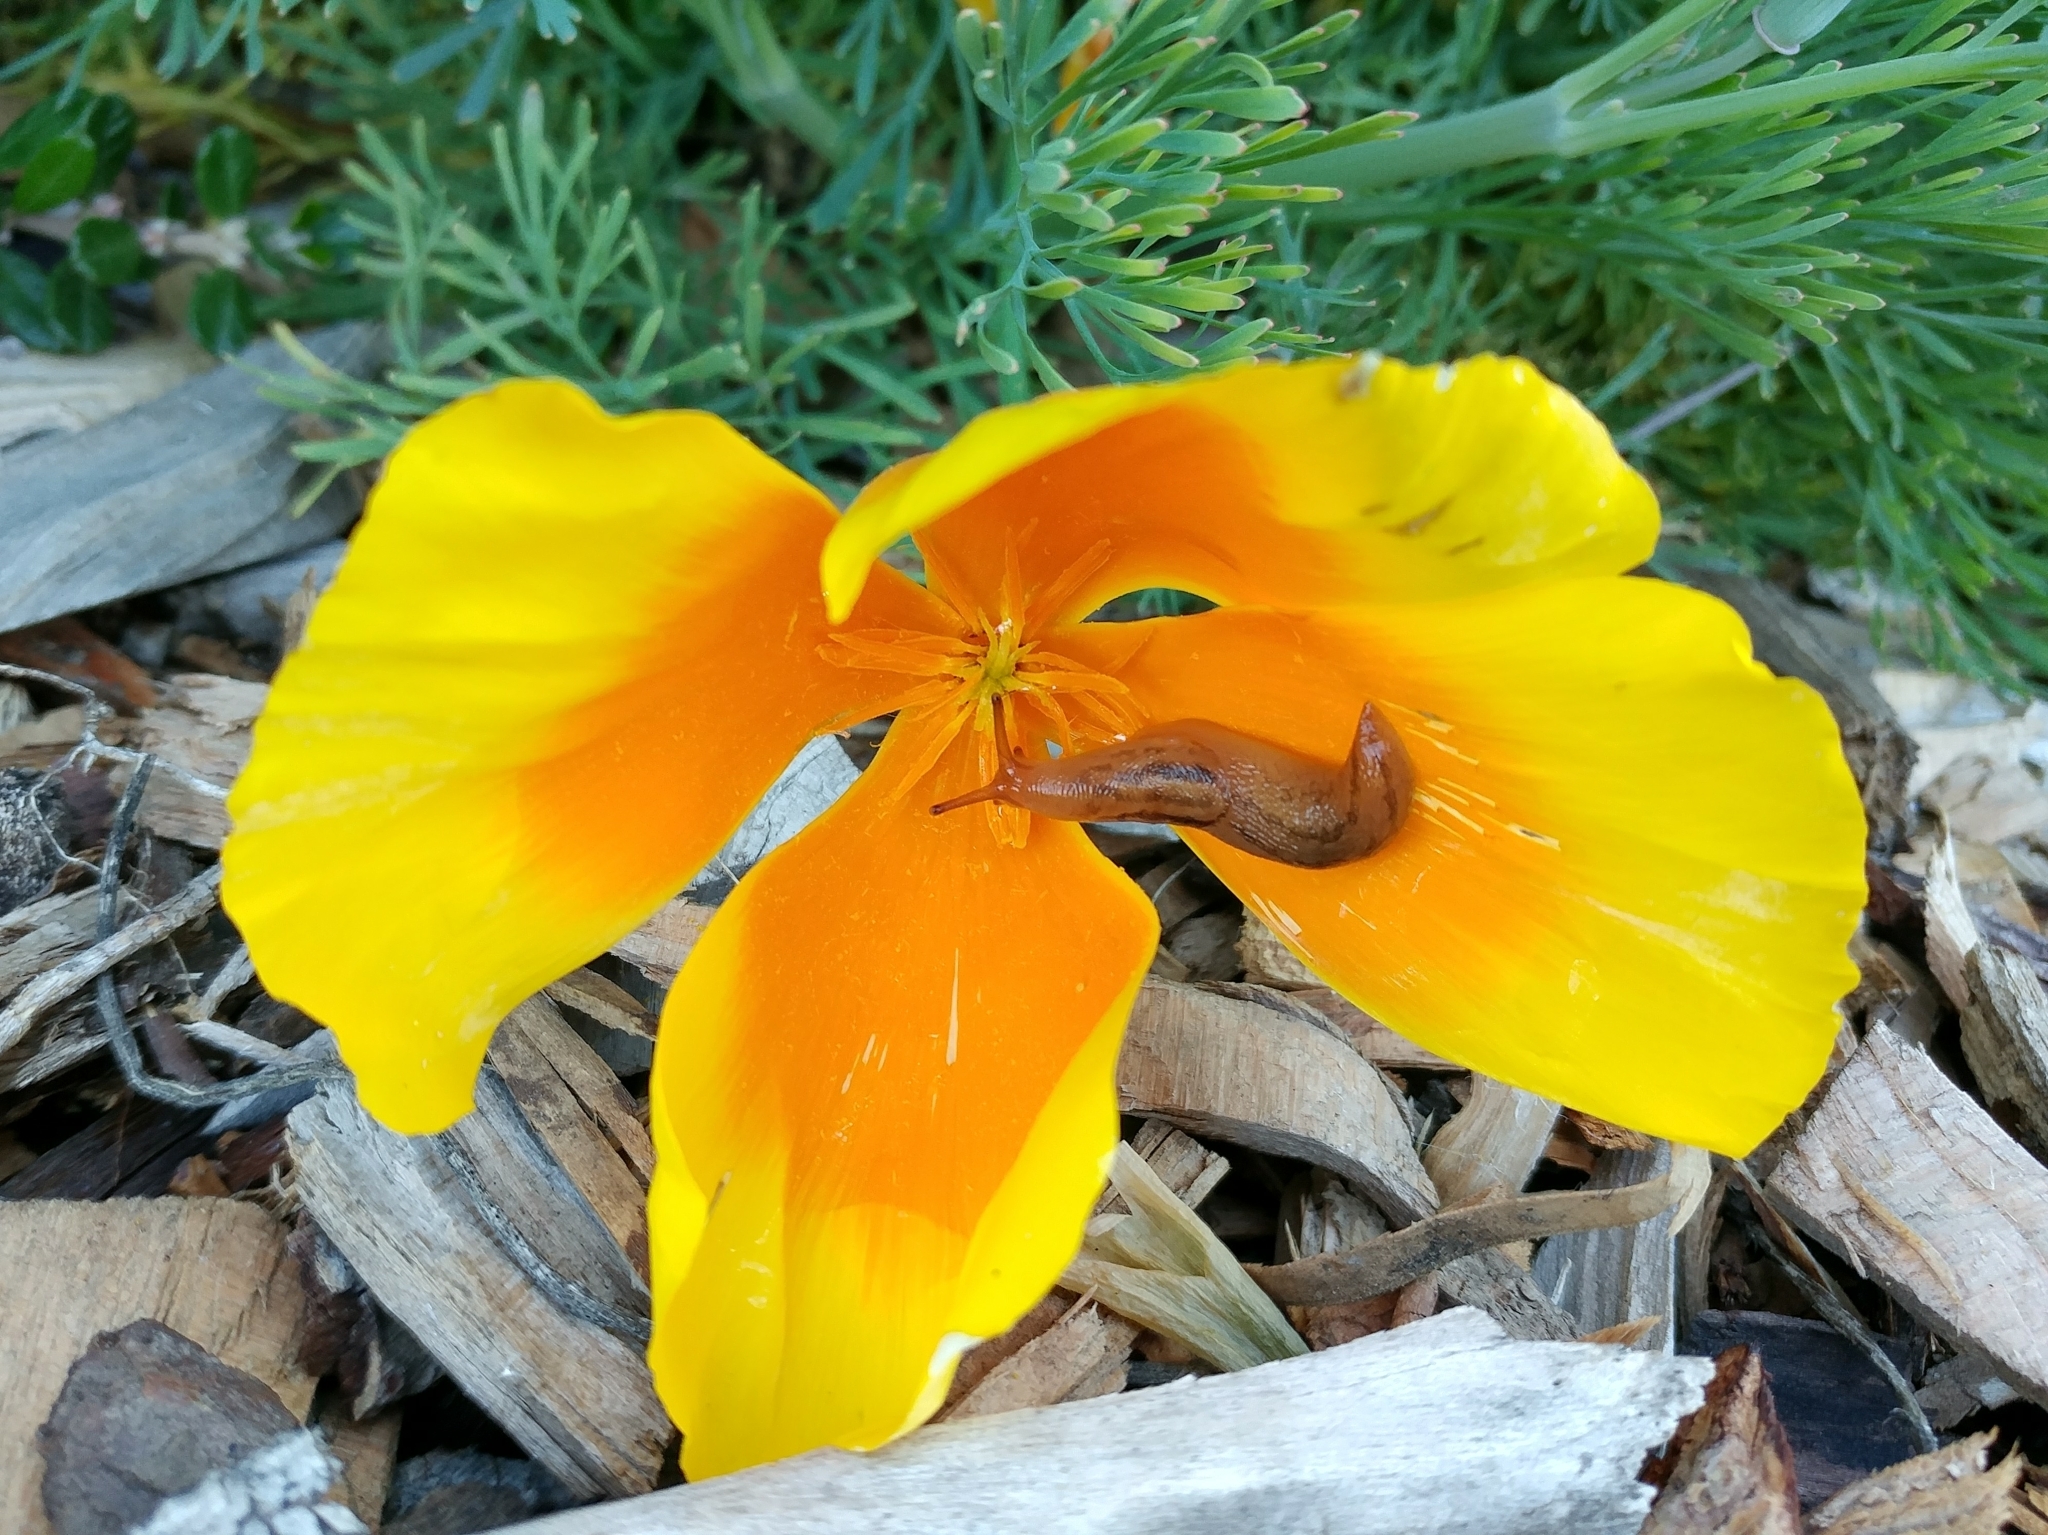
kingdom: Animalia
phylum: Mollusca
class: Gastropoda
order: Stylommatophora
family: Limacidae
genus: Ambigolimax
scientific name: Ambigolimax
